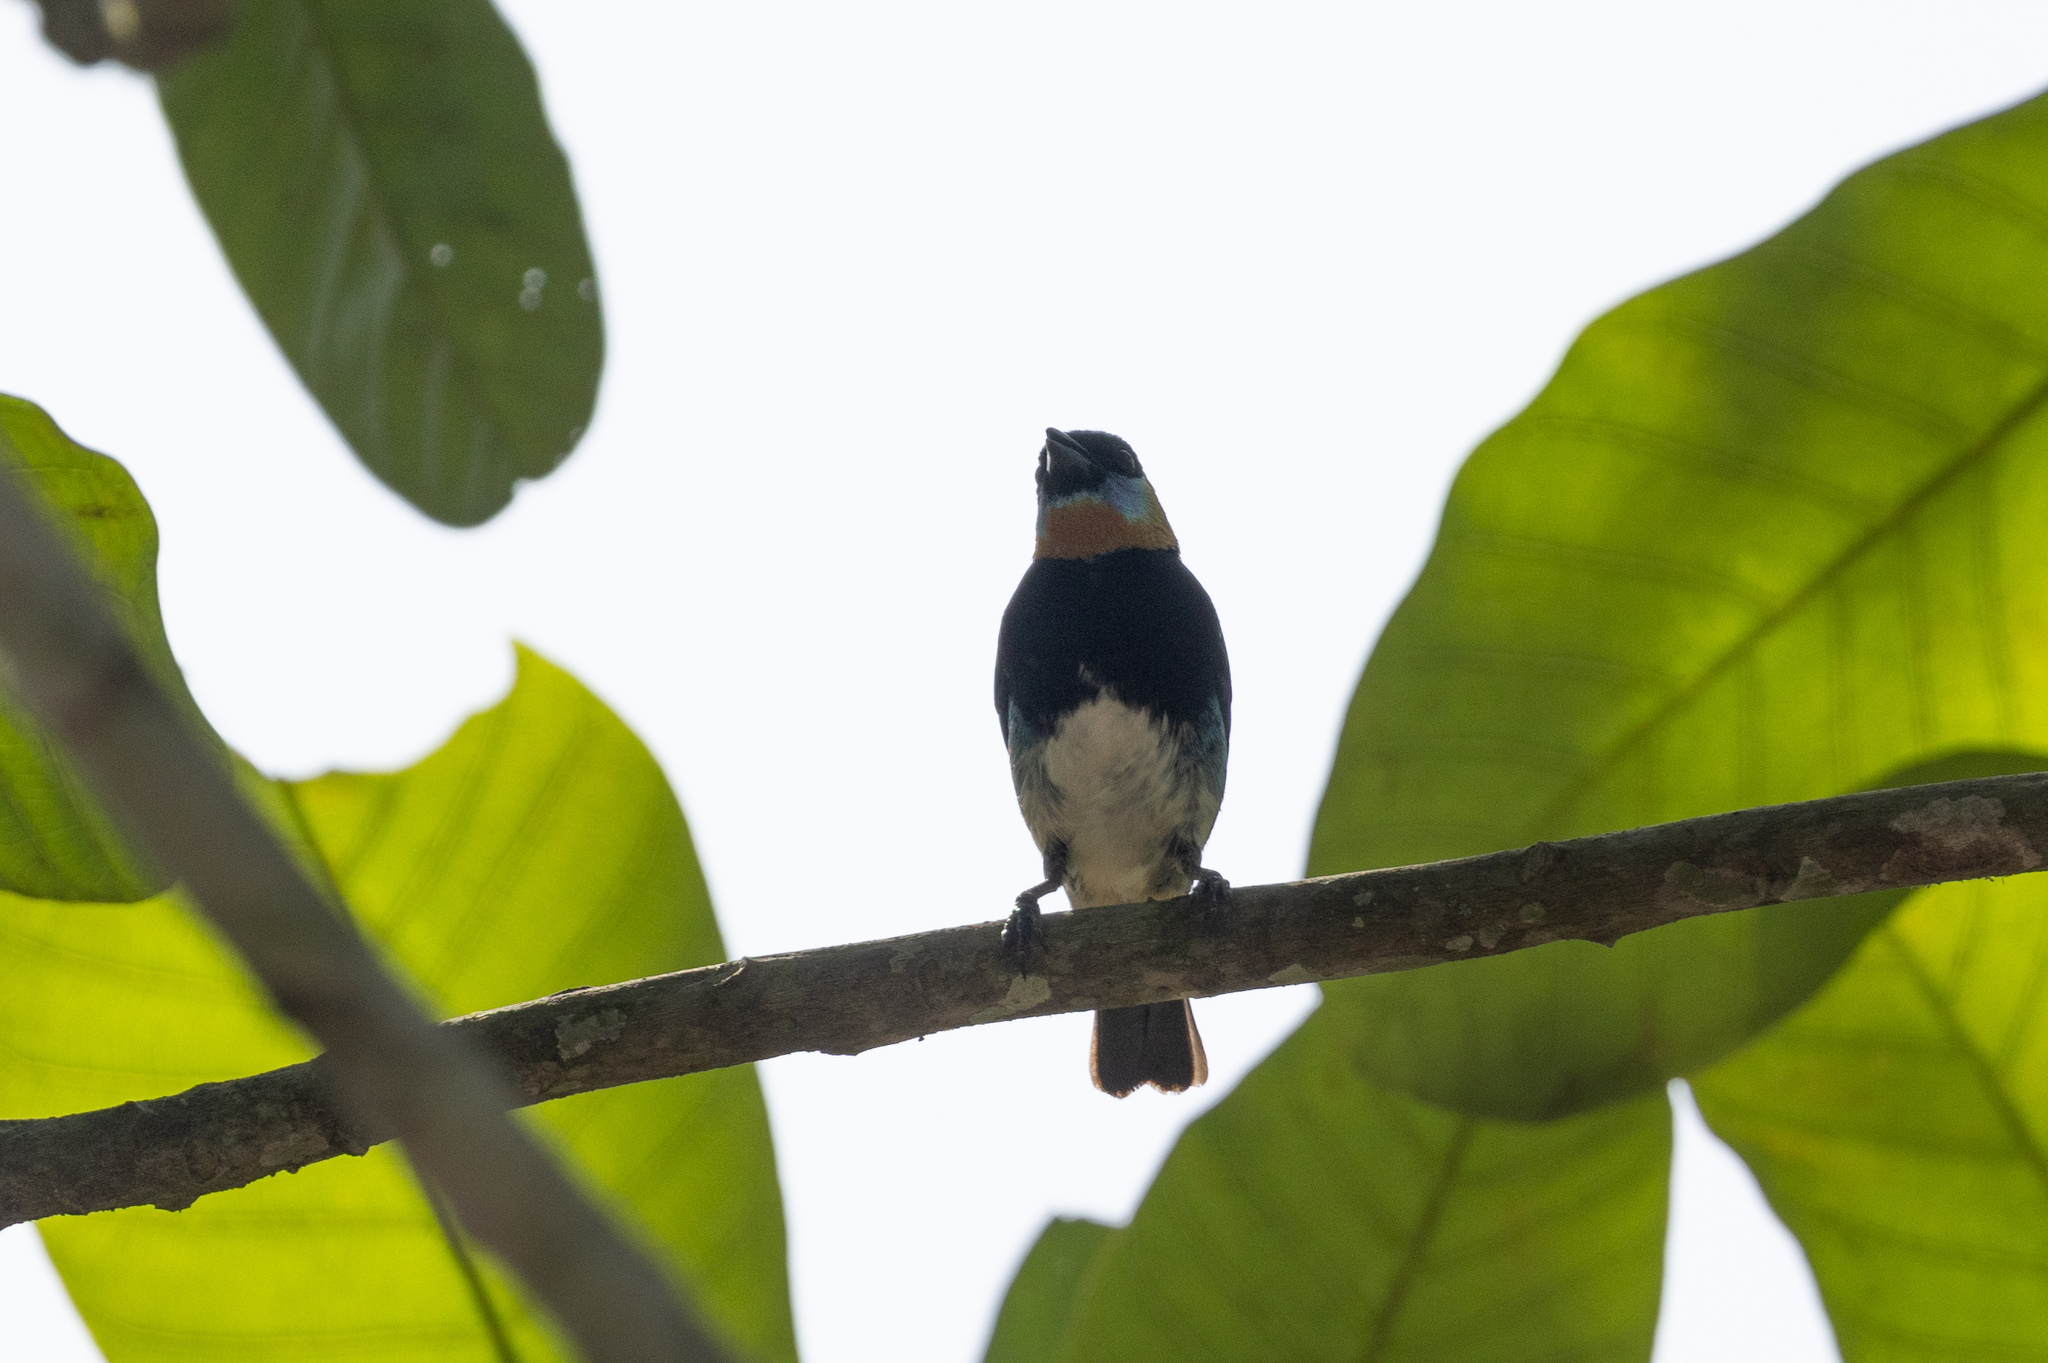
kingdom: Animalia
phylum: Chordata
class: Aves
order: Passeriformes
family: Thraupidae
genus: Stilpnia
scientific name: Stilpnia larvata
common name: Golden-hooded tanager
